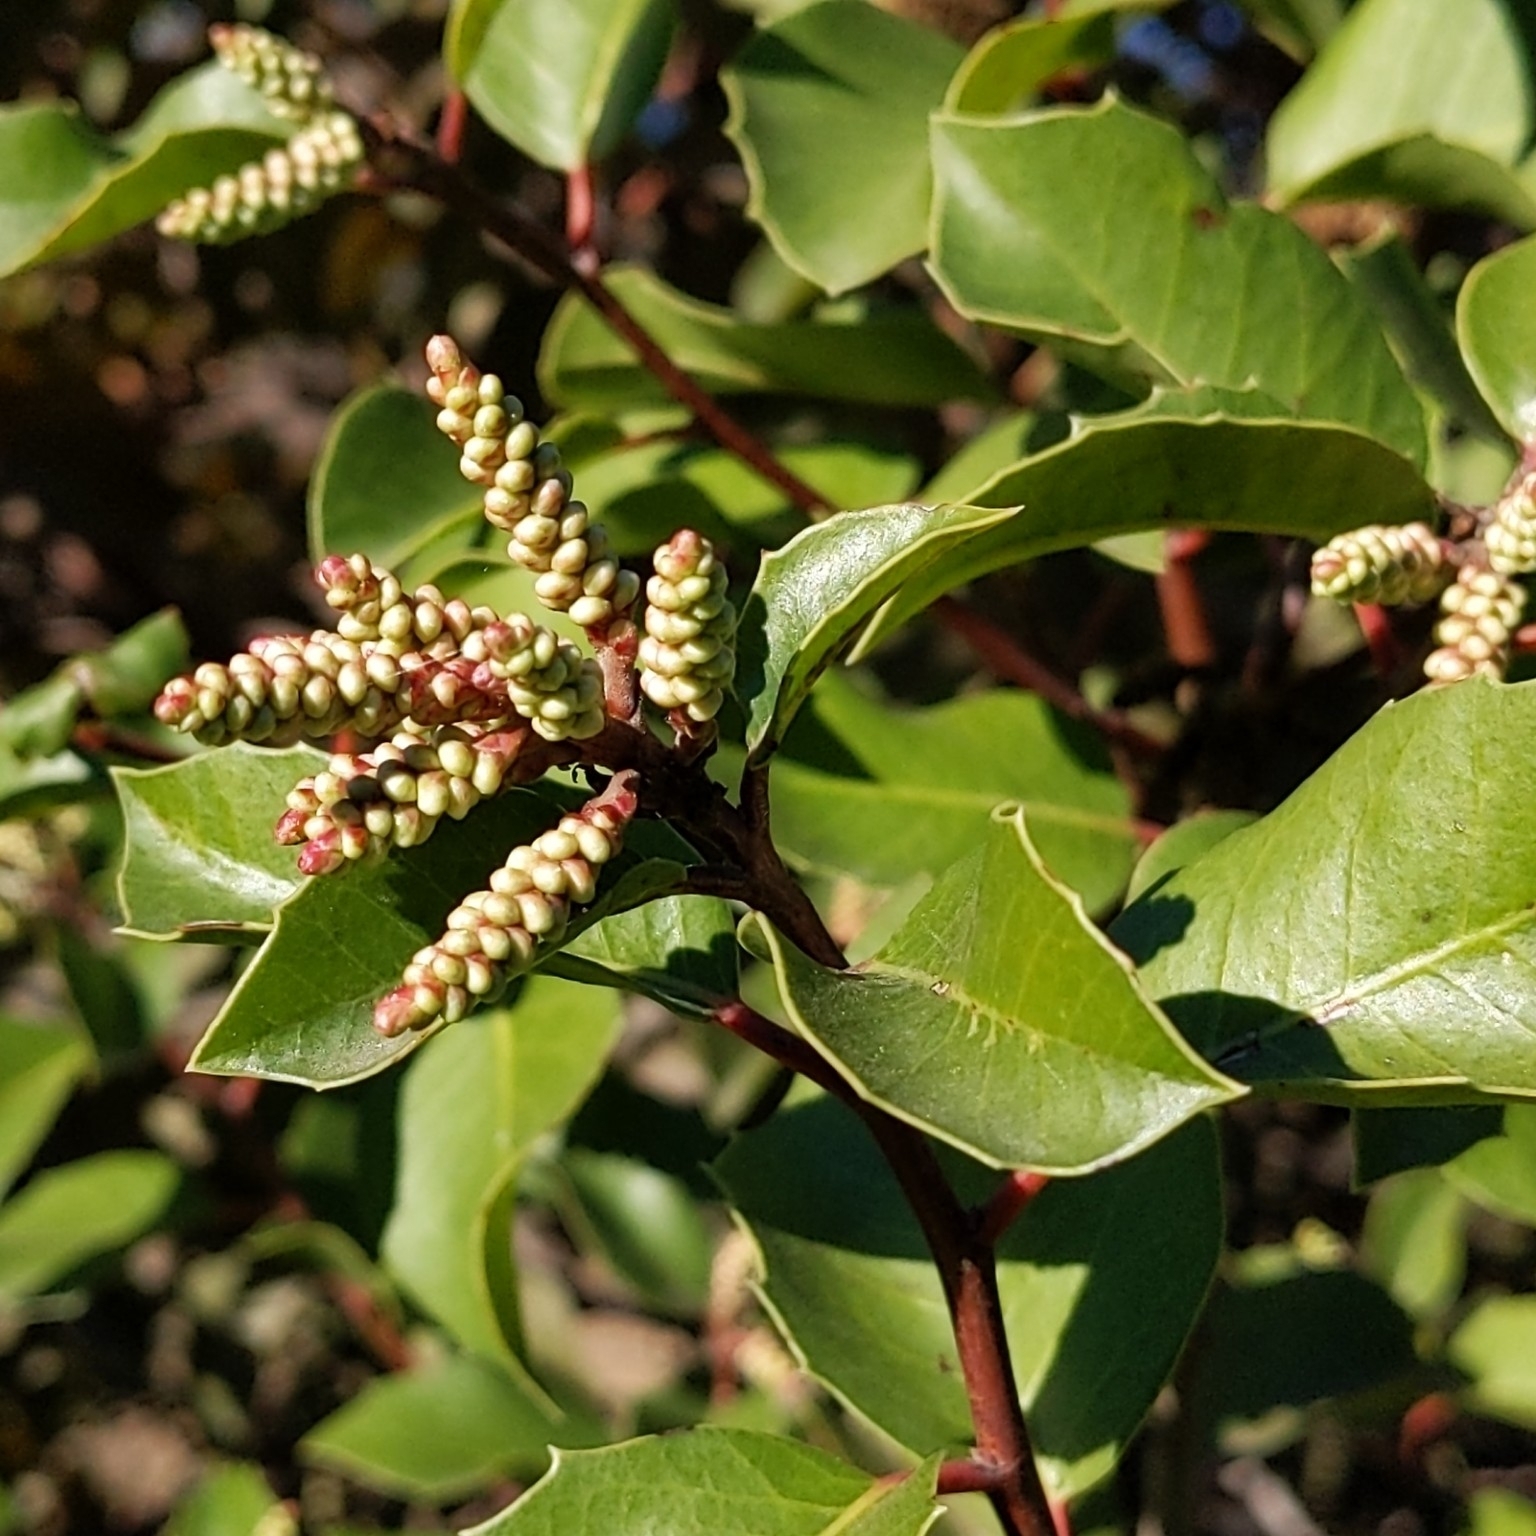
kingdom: Plantae
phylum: Tracheophyta
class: Magnoliopsida
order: Sapindales
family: Anacardiaceae
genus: Rhus
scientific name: Rhus
